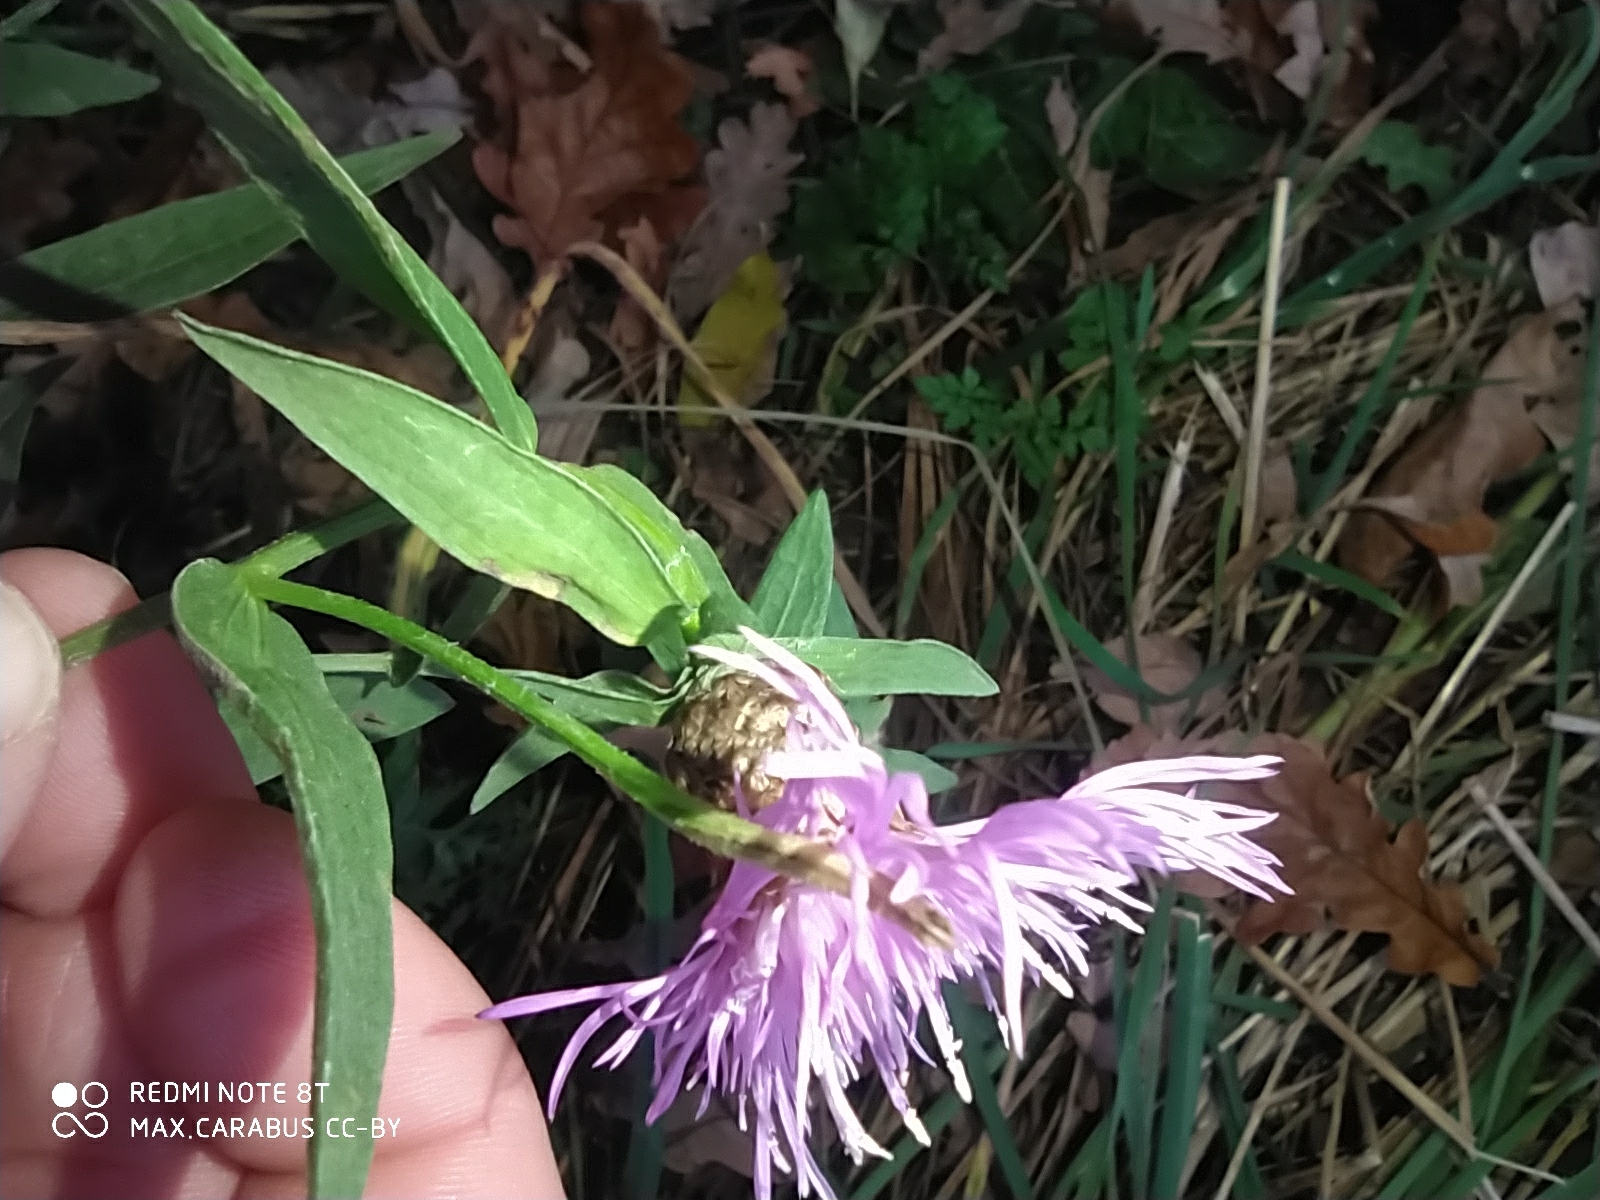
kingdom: Plantae
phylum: Tracheophyta
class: Magnoliopsida
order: Asterales
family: Asteraceae
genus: Centaurea
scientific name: Centaurea jacea
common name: Brown knapweed
